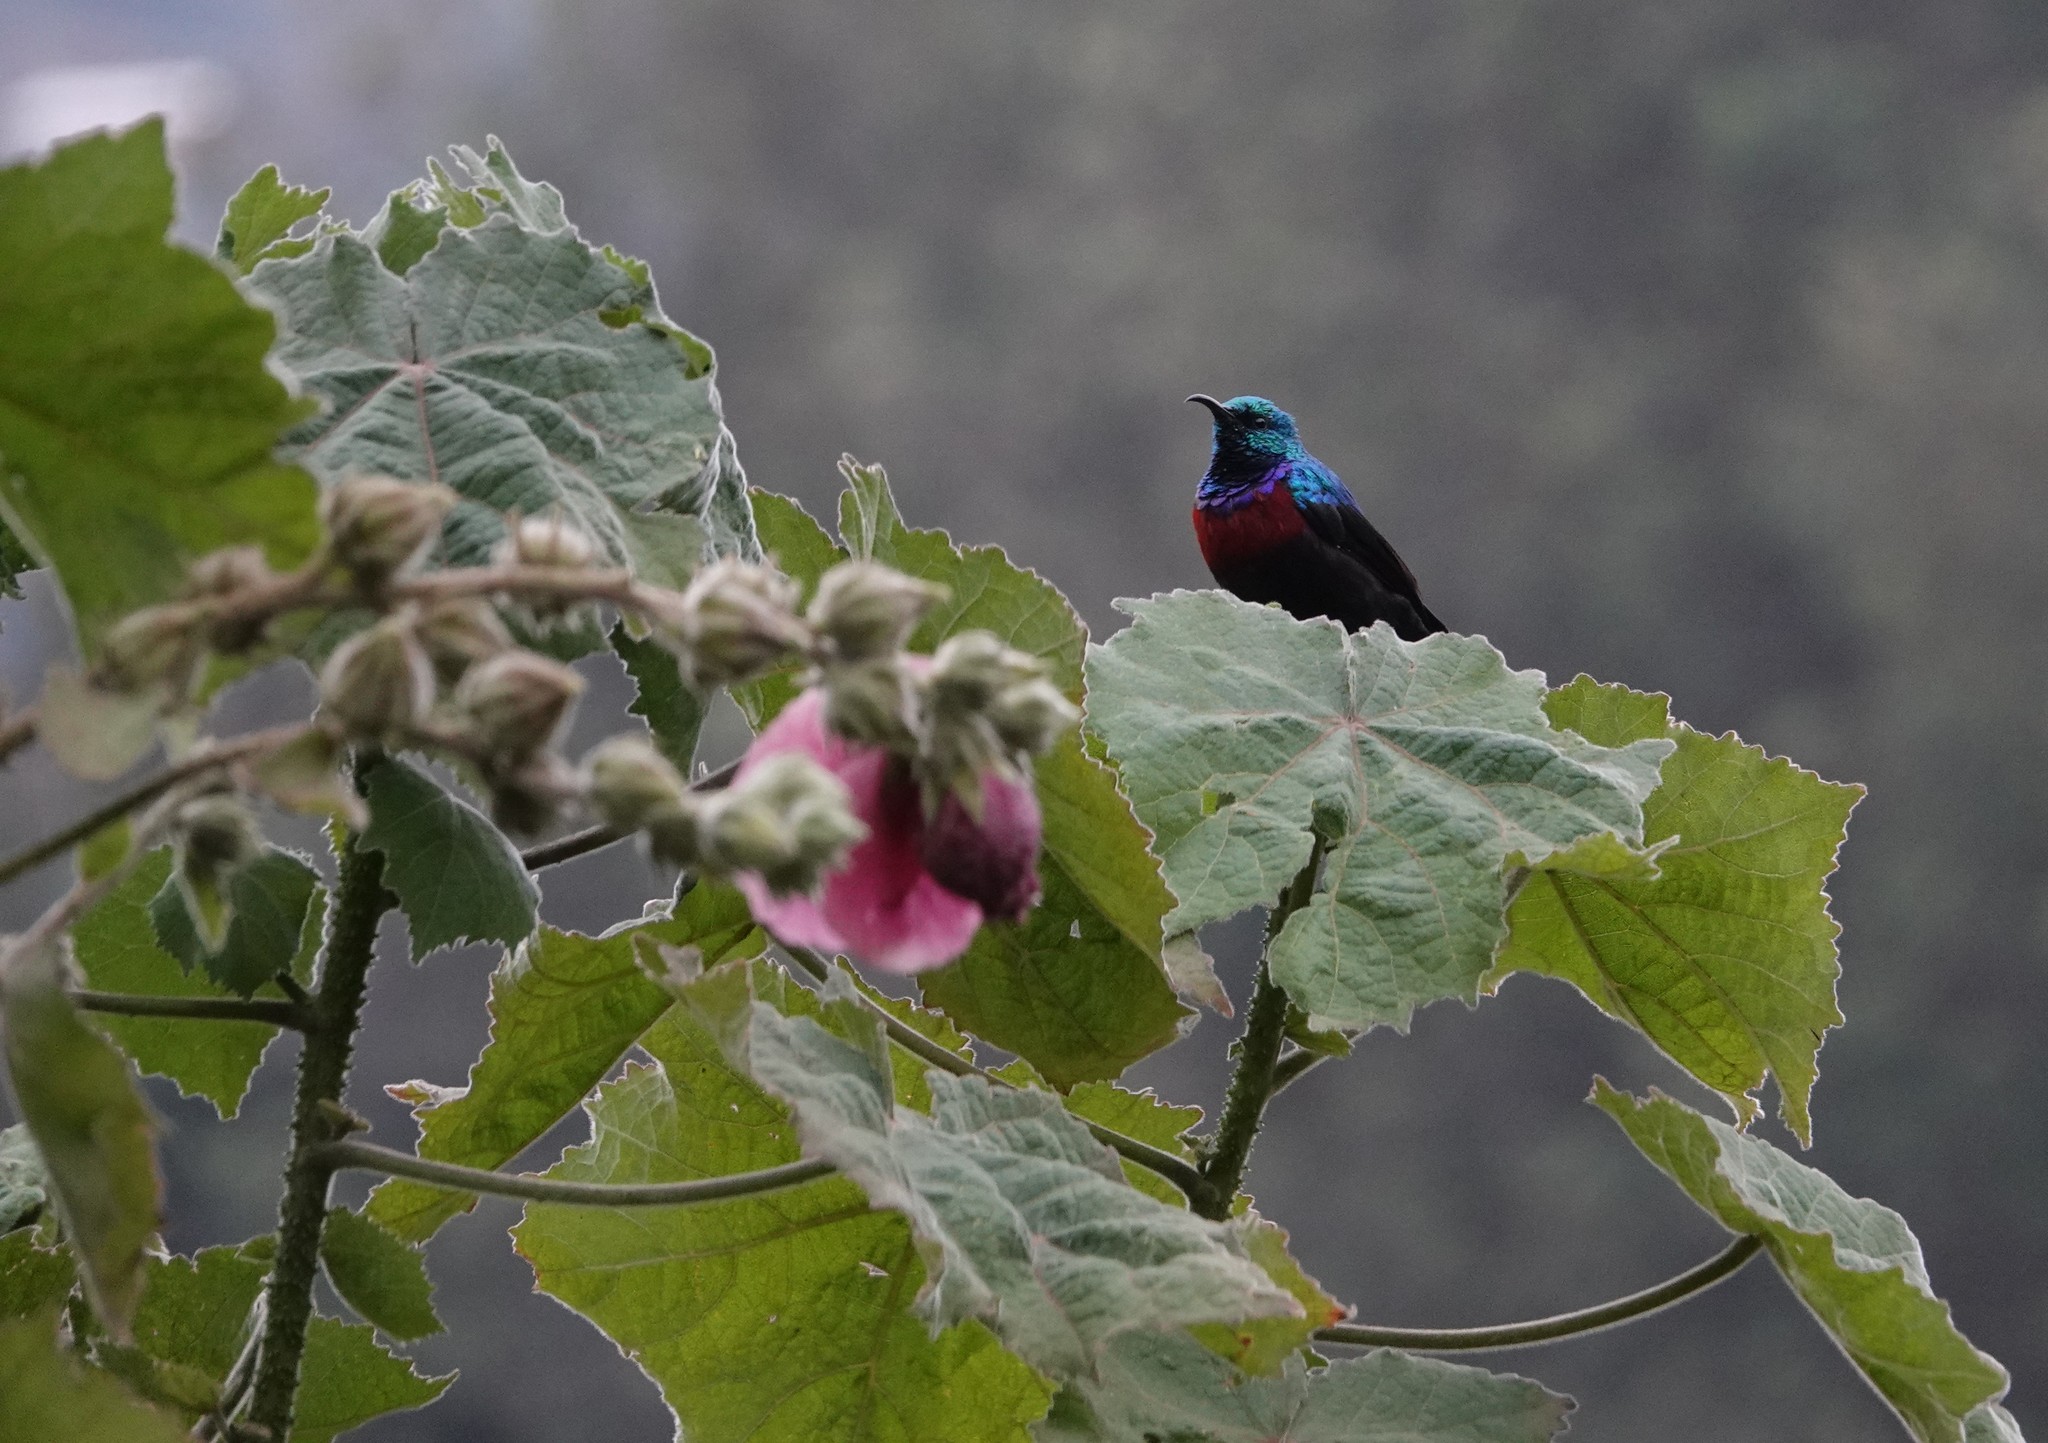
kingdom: Animalia
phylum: Chordata
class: Aves
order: Passeriformes
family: Nectariniidae
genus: Cinnyris
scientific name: Cinnyris erythrocercus
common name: Red-chested sunbird
